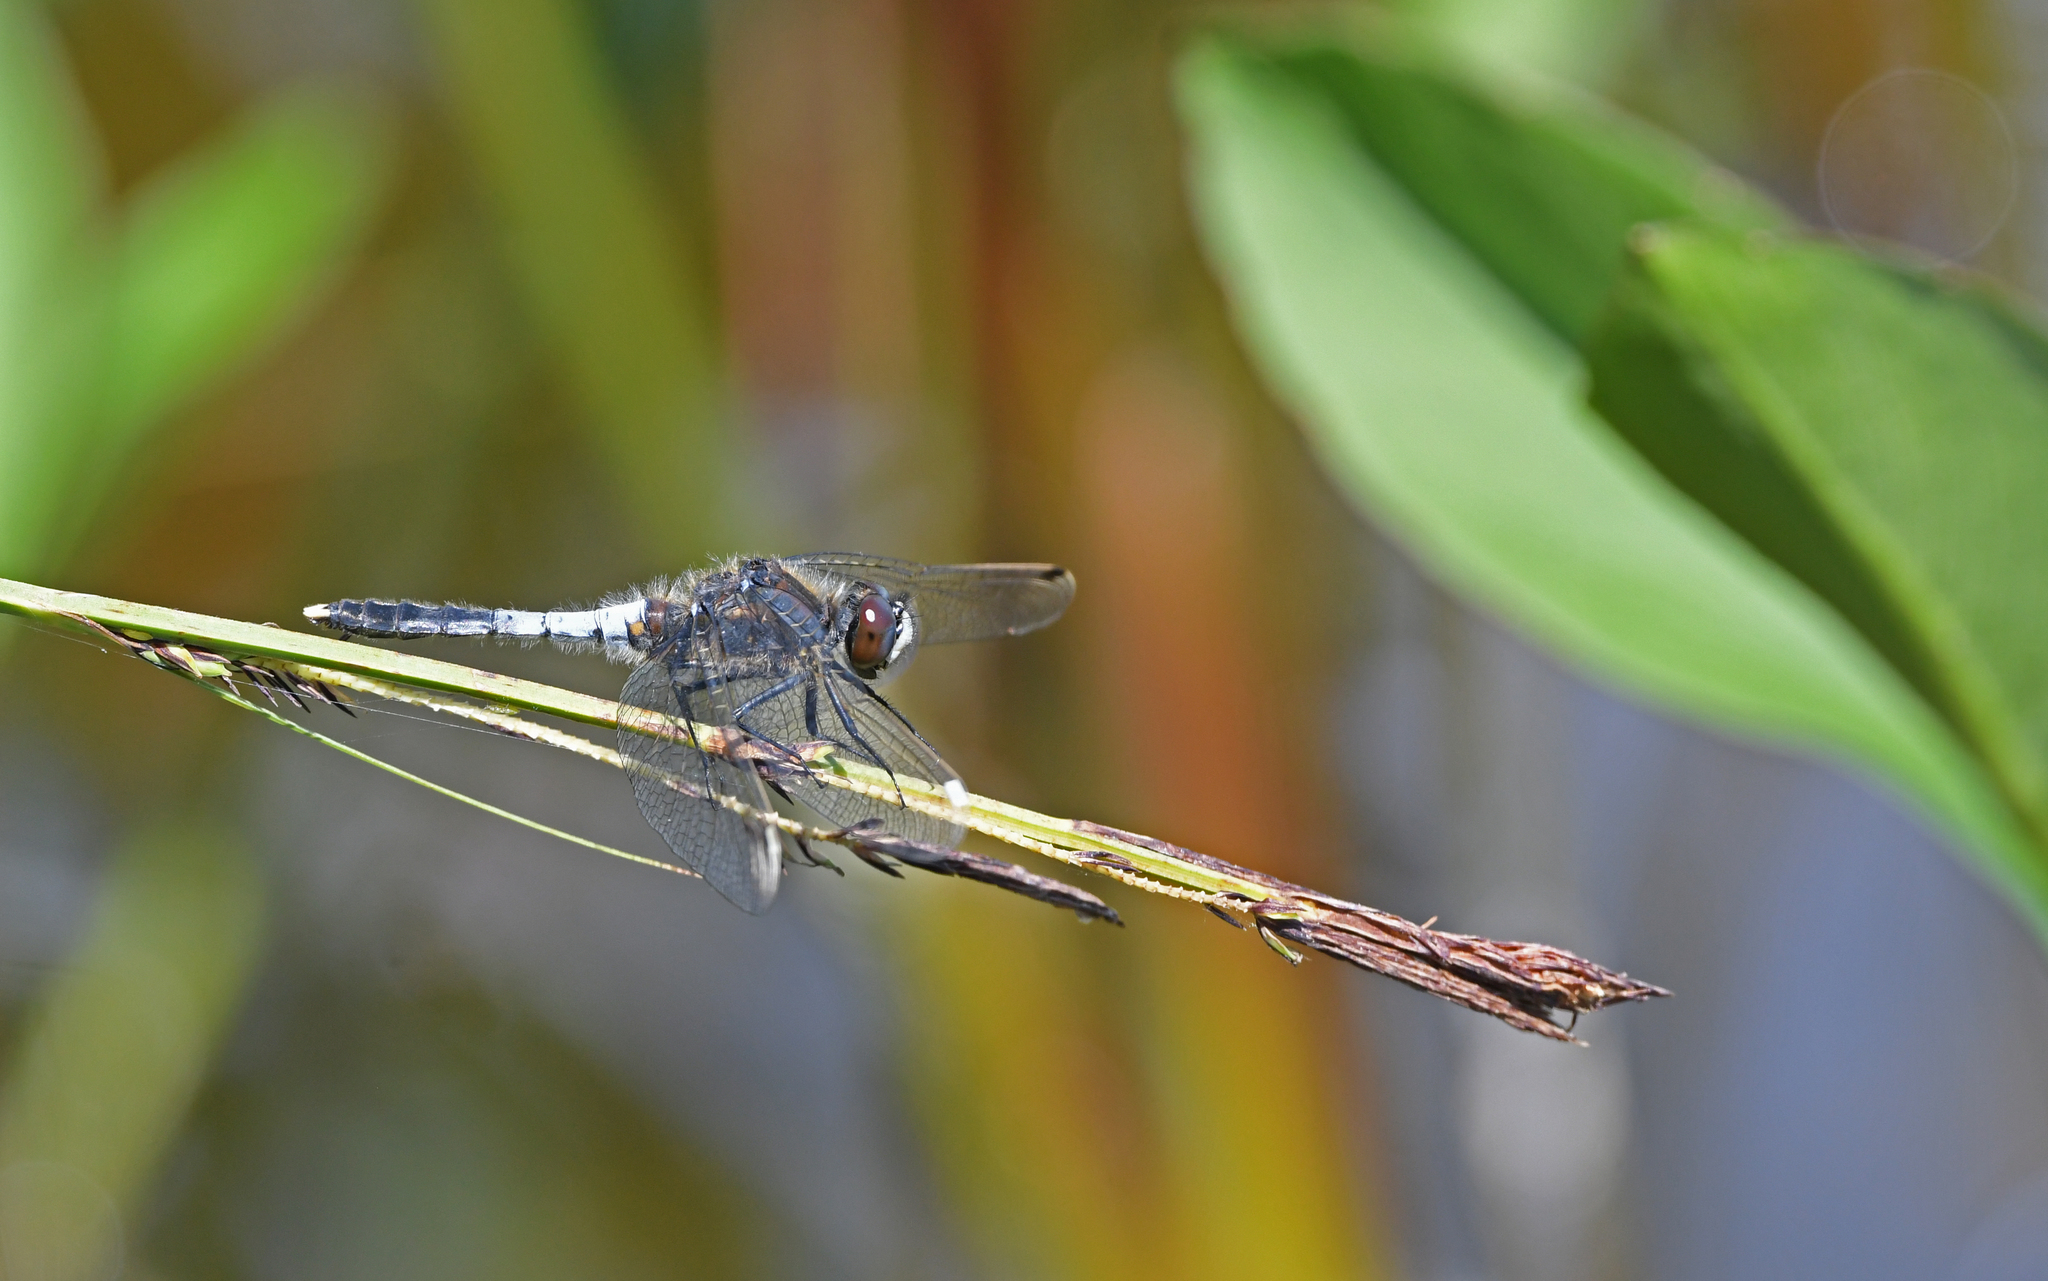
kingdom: Animalia
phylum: Arthropoda
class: Insecta
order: Odonata
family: Libellulidae
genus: Leucorrhinia
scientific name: Leucorrhinia caudalis
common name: Lilypad whiteface
